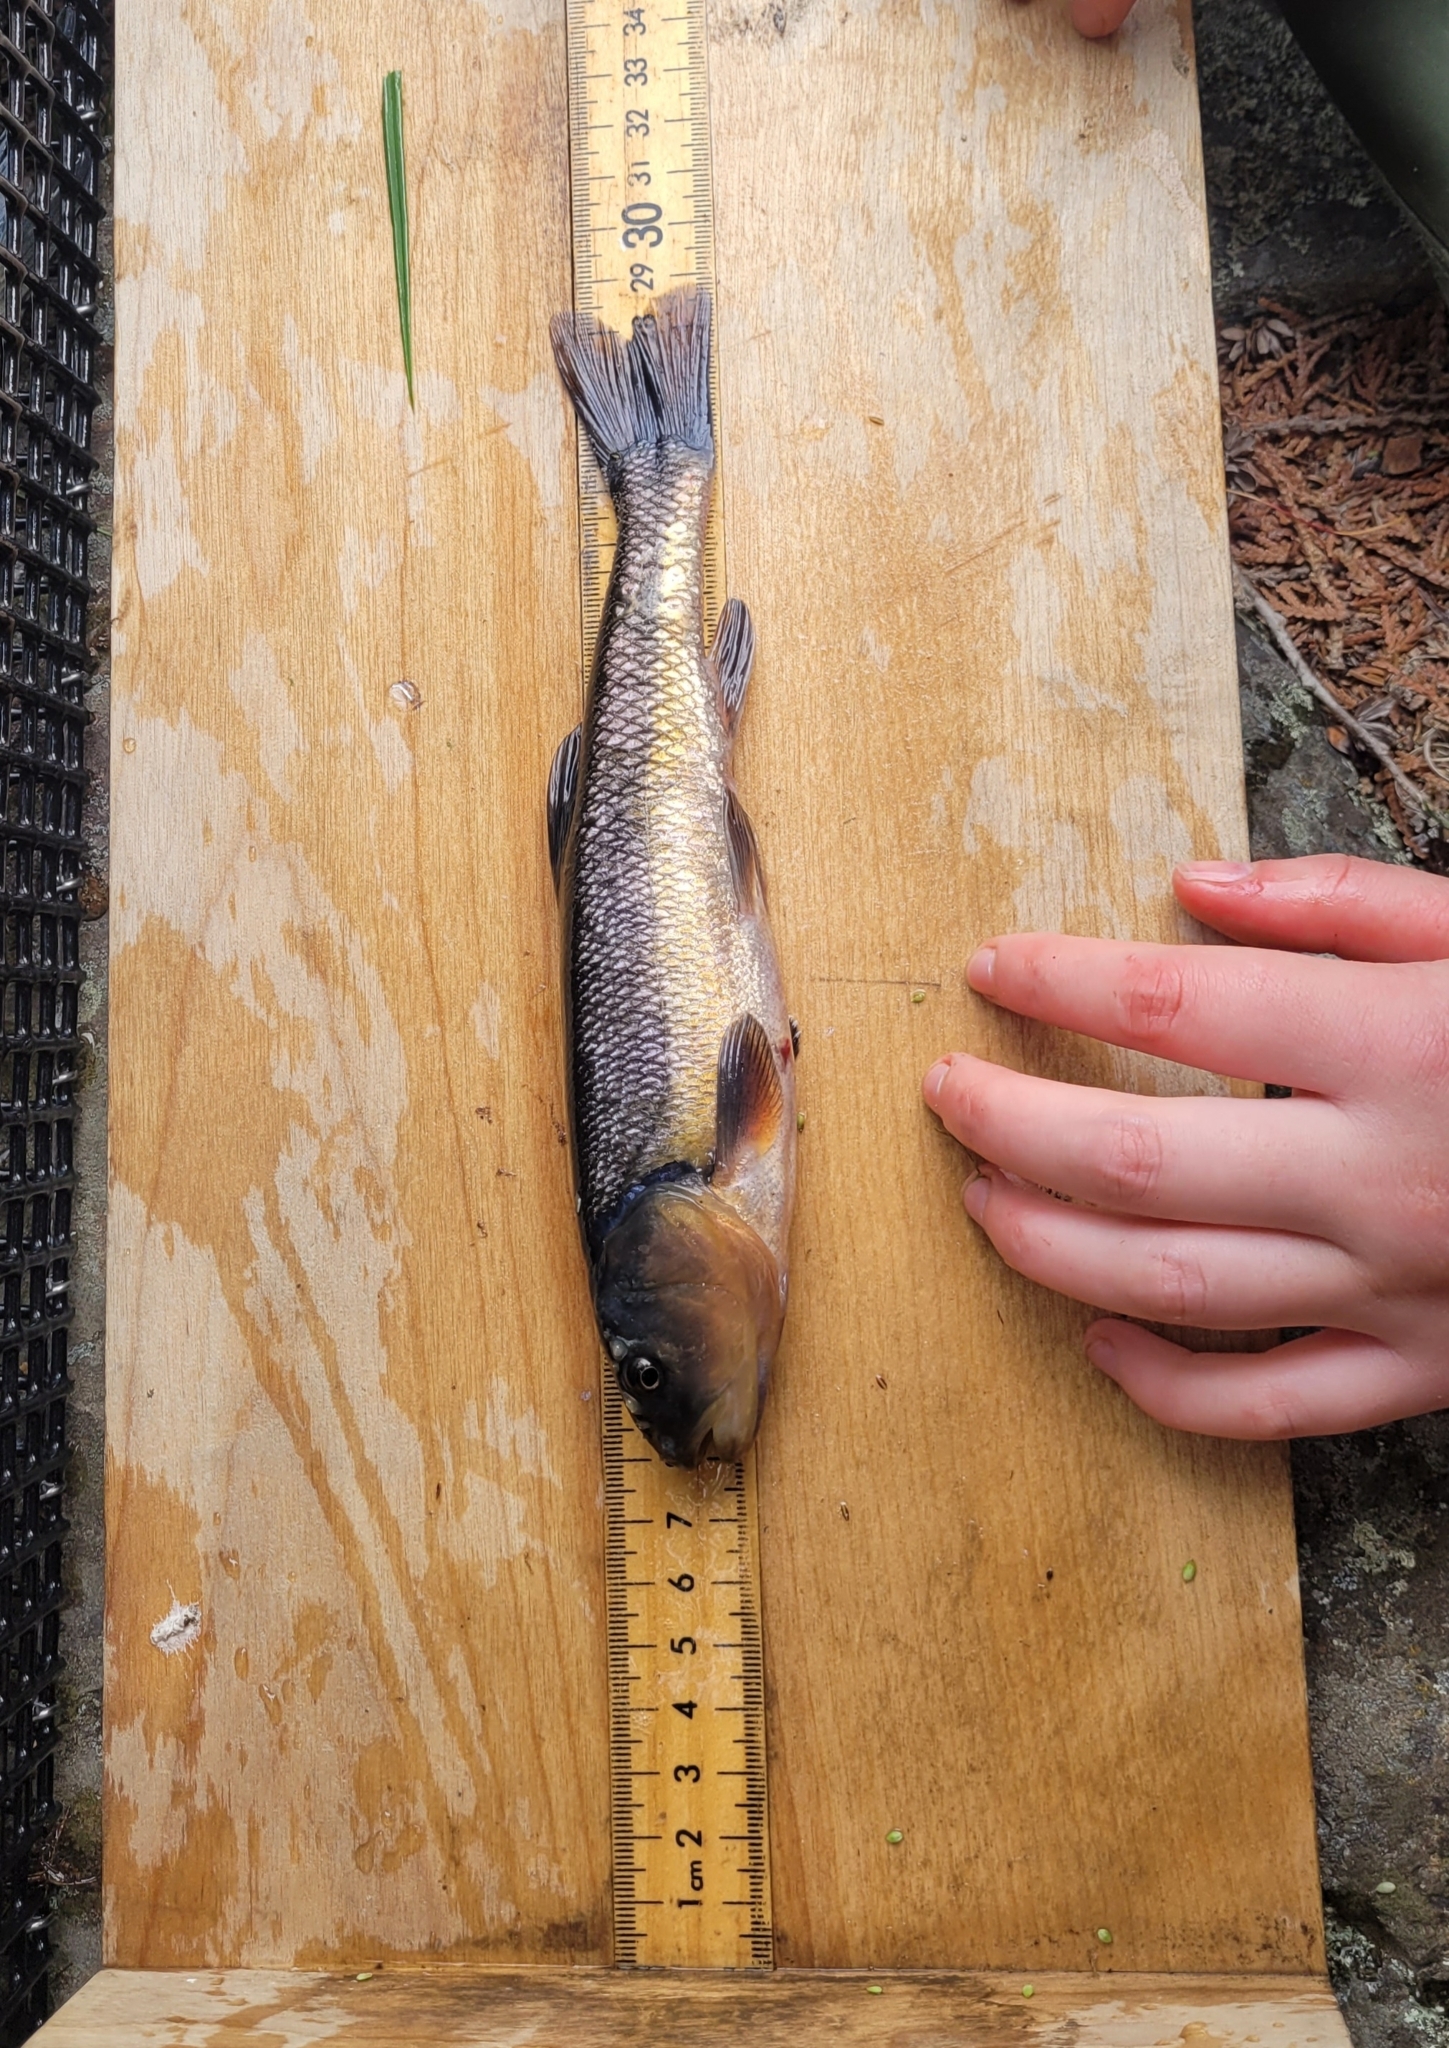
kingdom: Animalia
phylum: Chordata
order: Cypriniformes
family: Cyprinidae
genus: Semotilus
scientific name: Semotilus atromaculatus
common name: Creek chub
